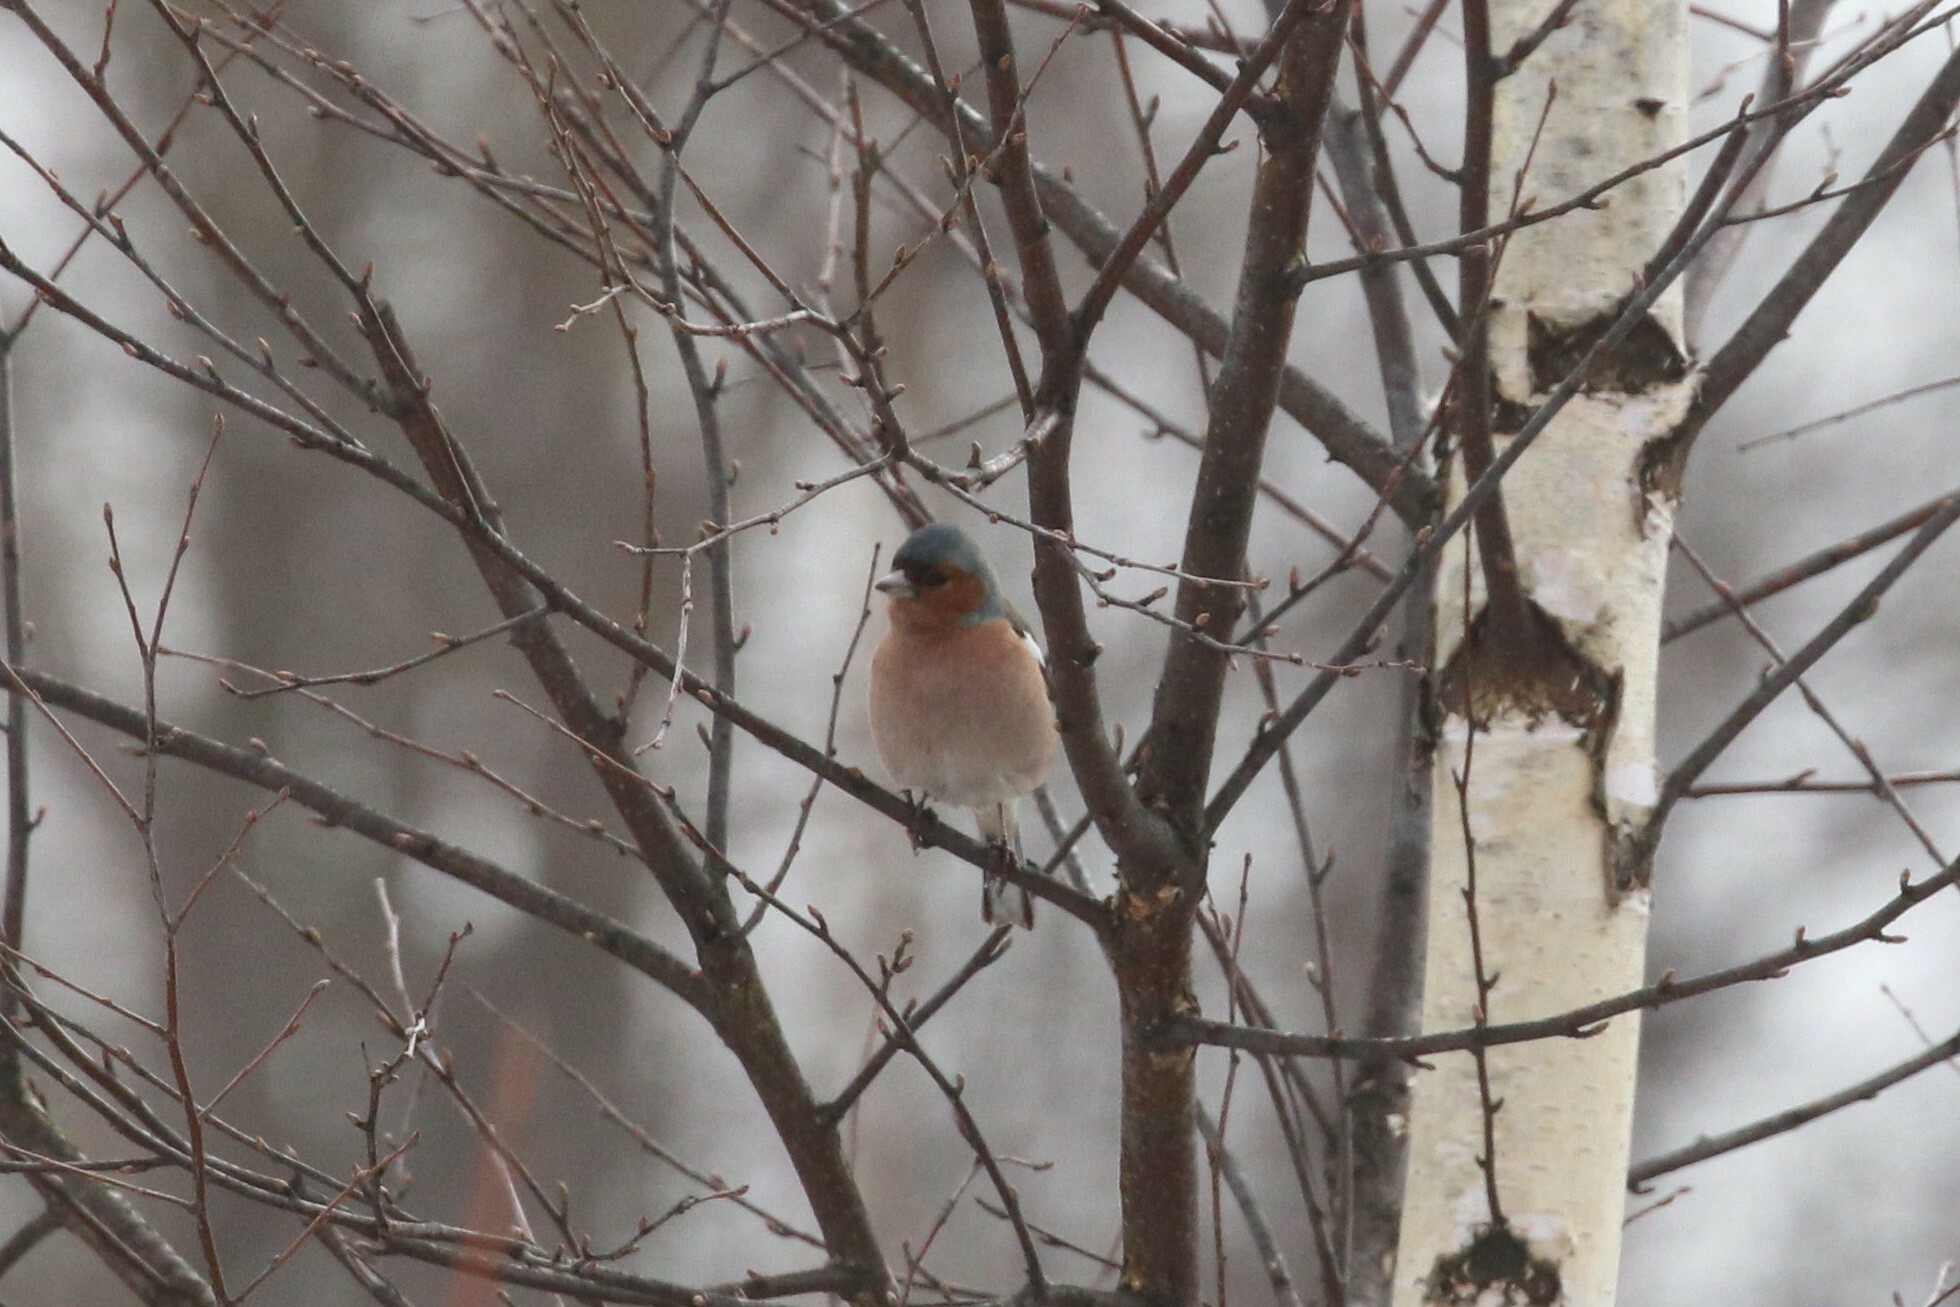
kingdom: Animalia
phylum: Chordata
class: Aves
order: Passeriformes
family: Fringillidae
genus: Fringilla
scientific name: Fringilla coelebs
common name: Common chaffinch
